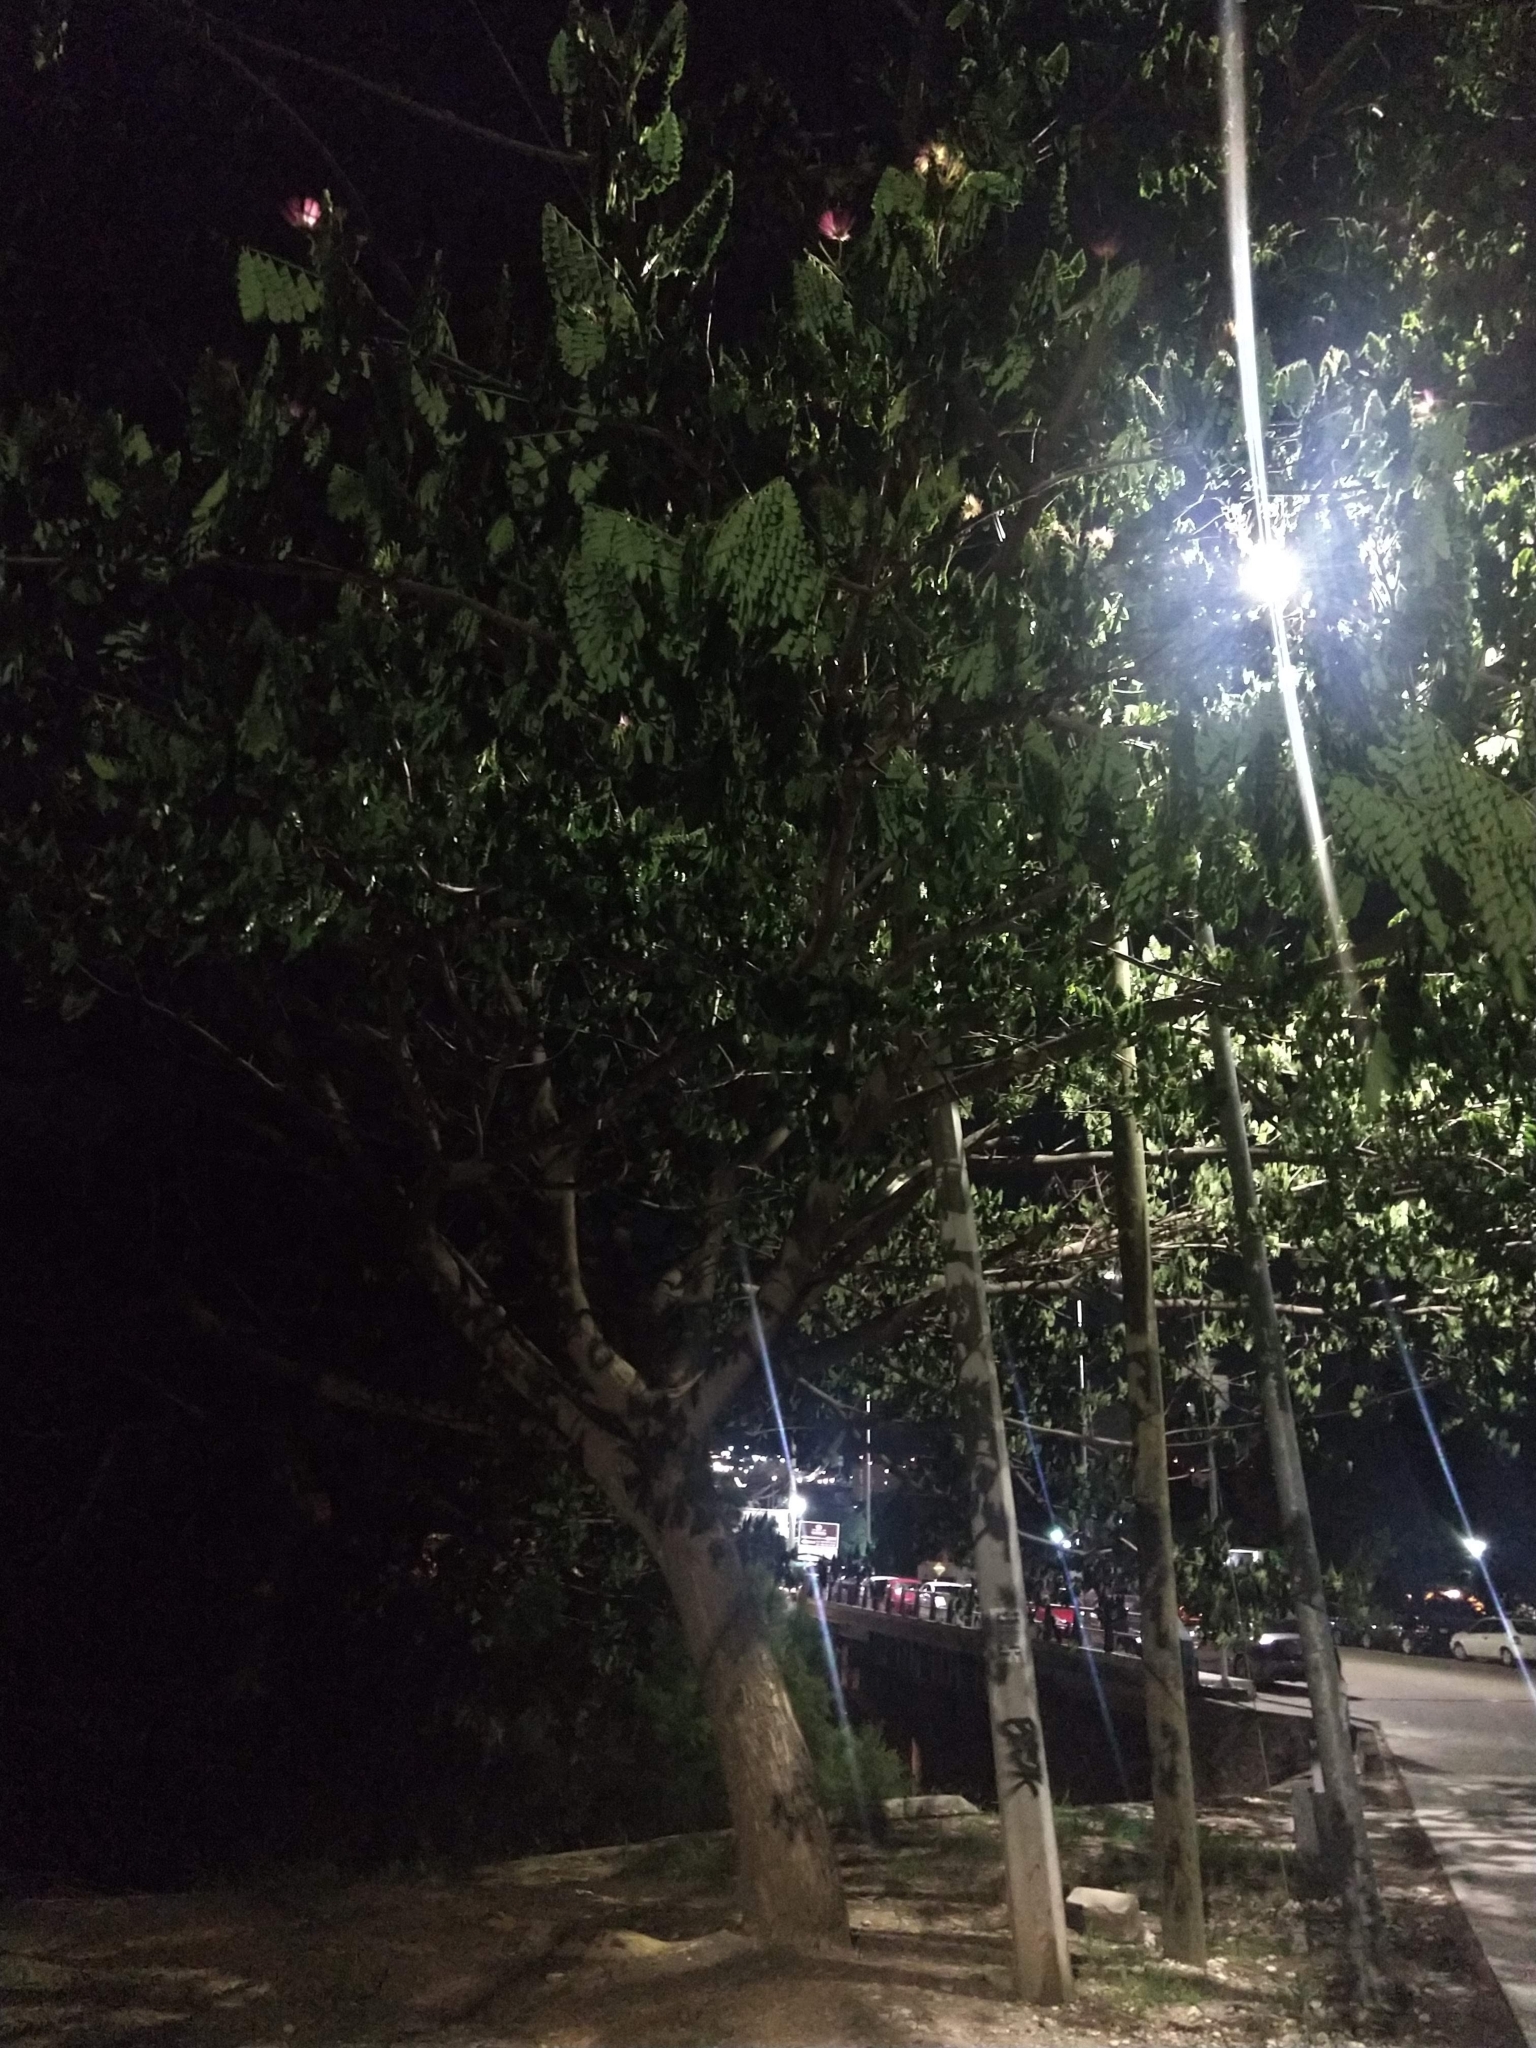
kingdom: Plantae
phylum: Tracheophyta
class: Magnoliopsida
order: Fabales
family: Fabaceae
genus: Samanea
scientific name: Samanea saman
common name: Raintree
